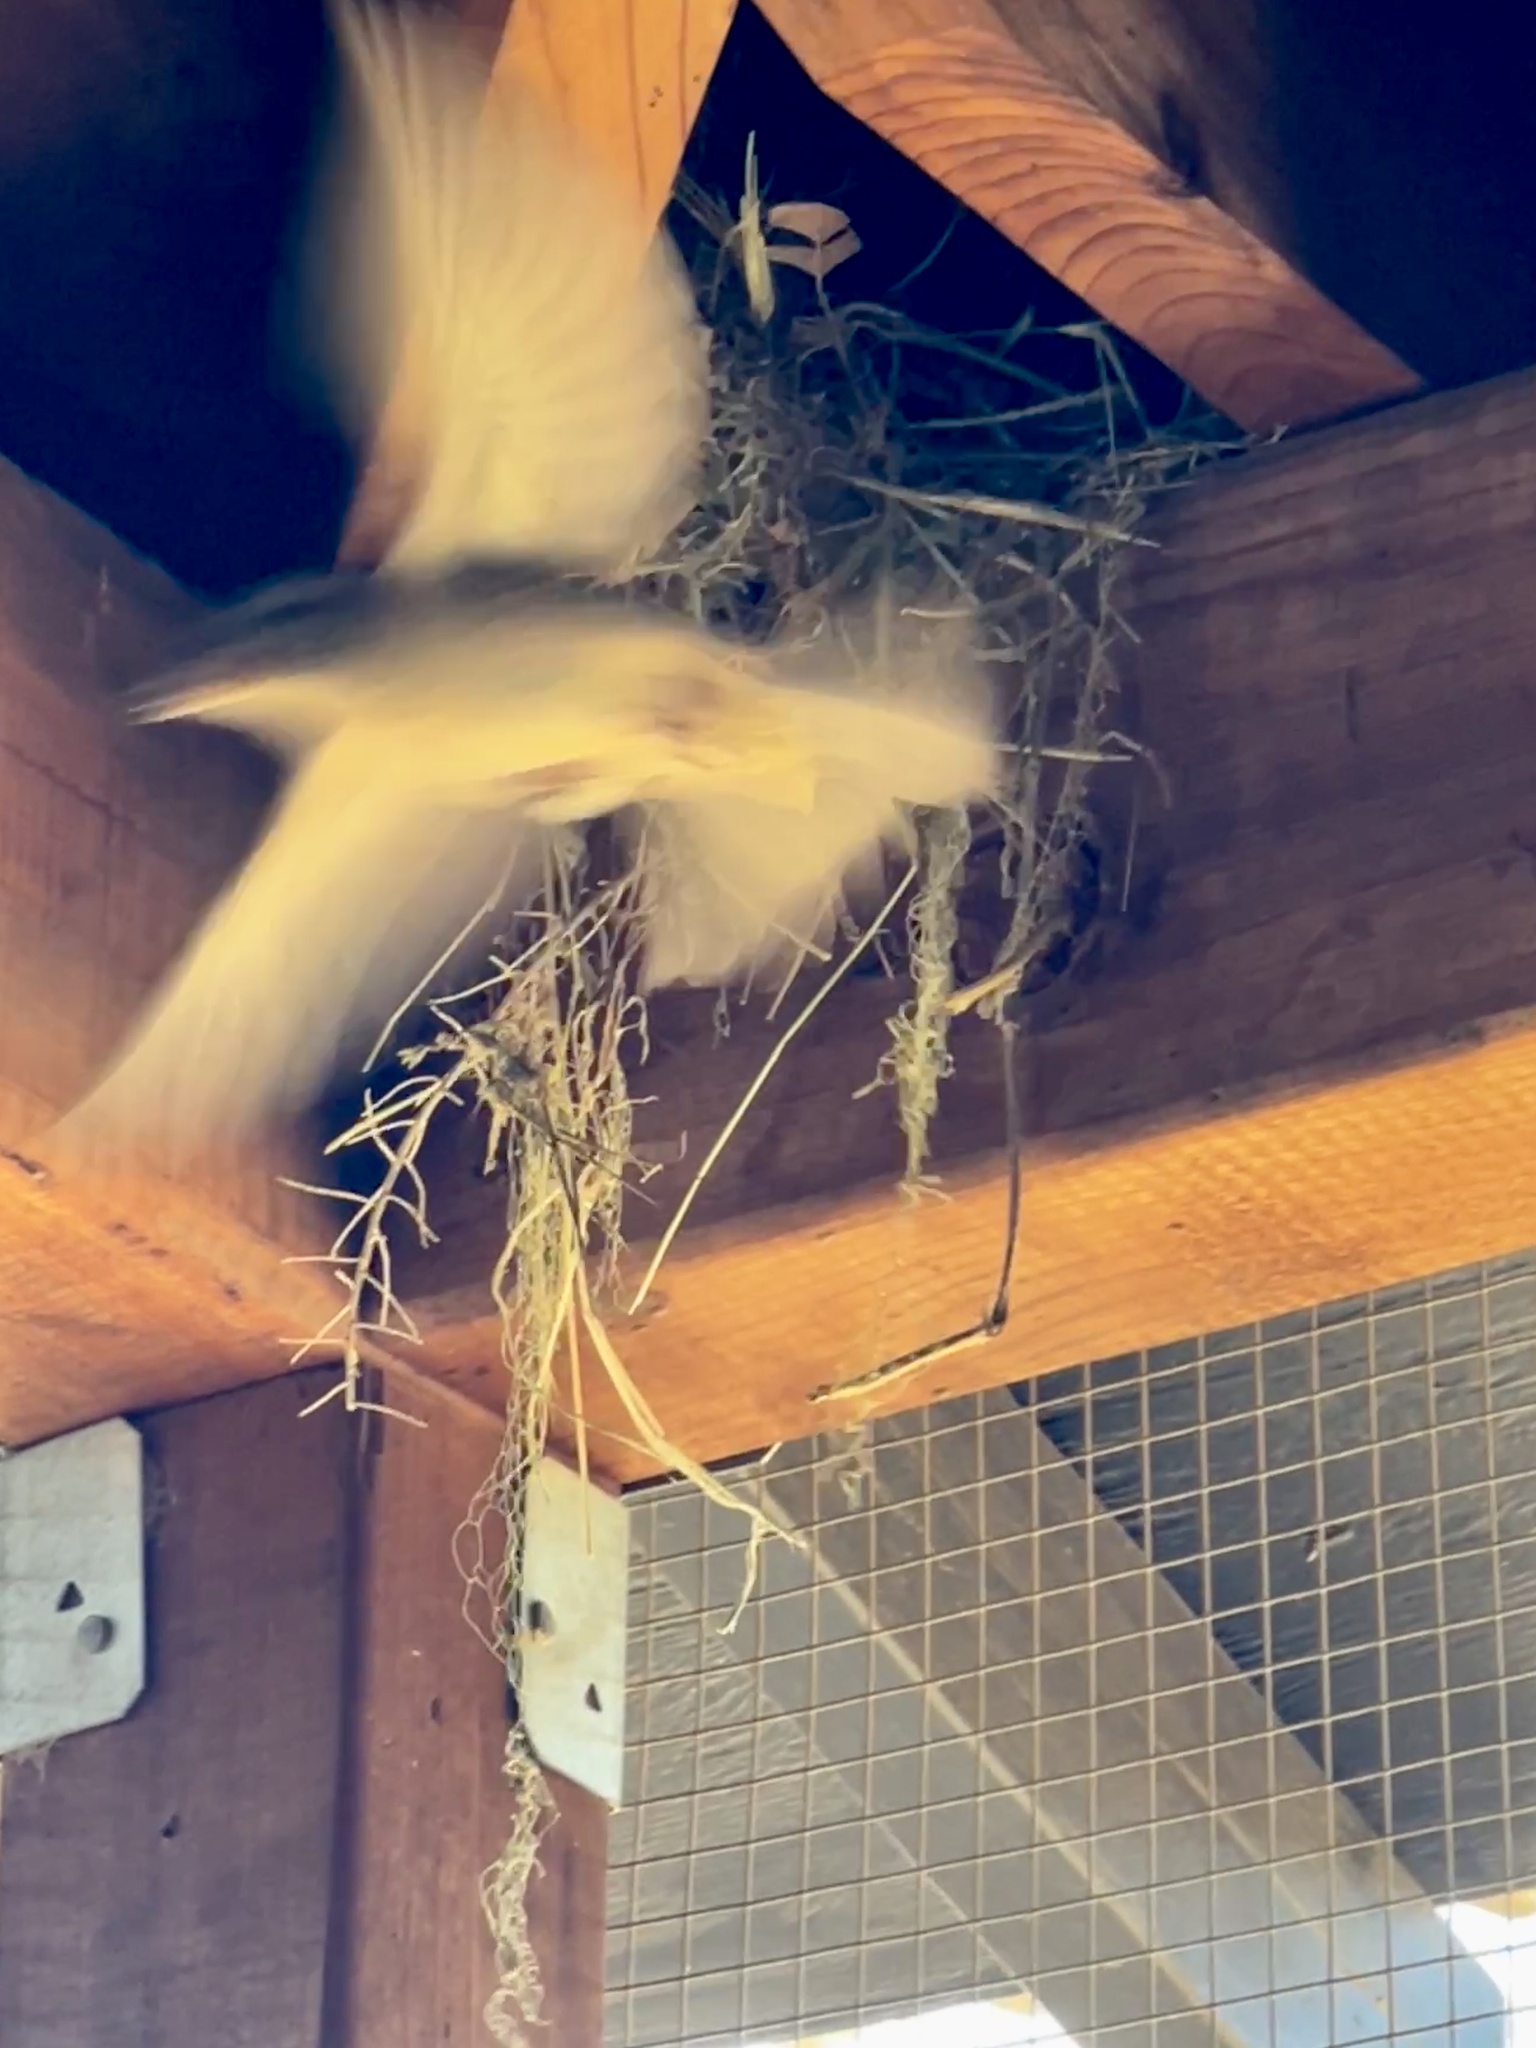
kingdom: Animalia
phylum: Chordata
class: Aves
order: Passeriformes
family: Passeridae
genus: Passer
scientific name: Passer domesticus
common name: House sparrow
